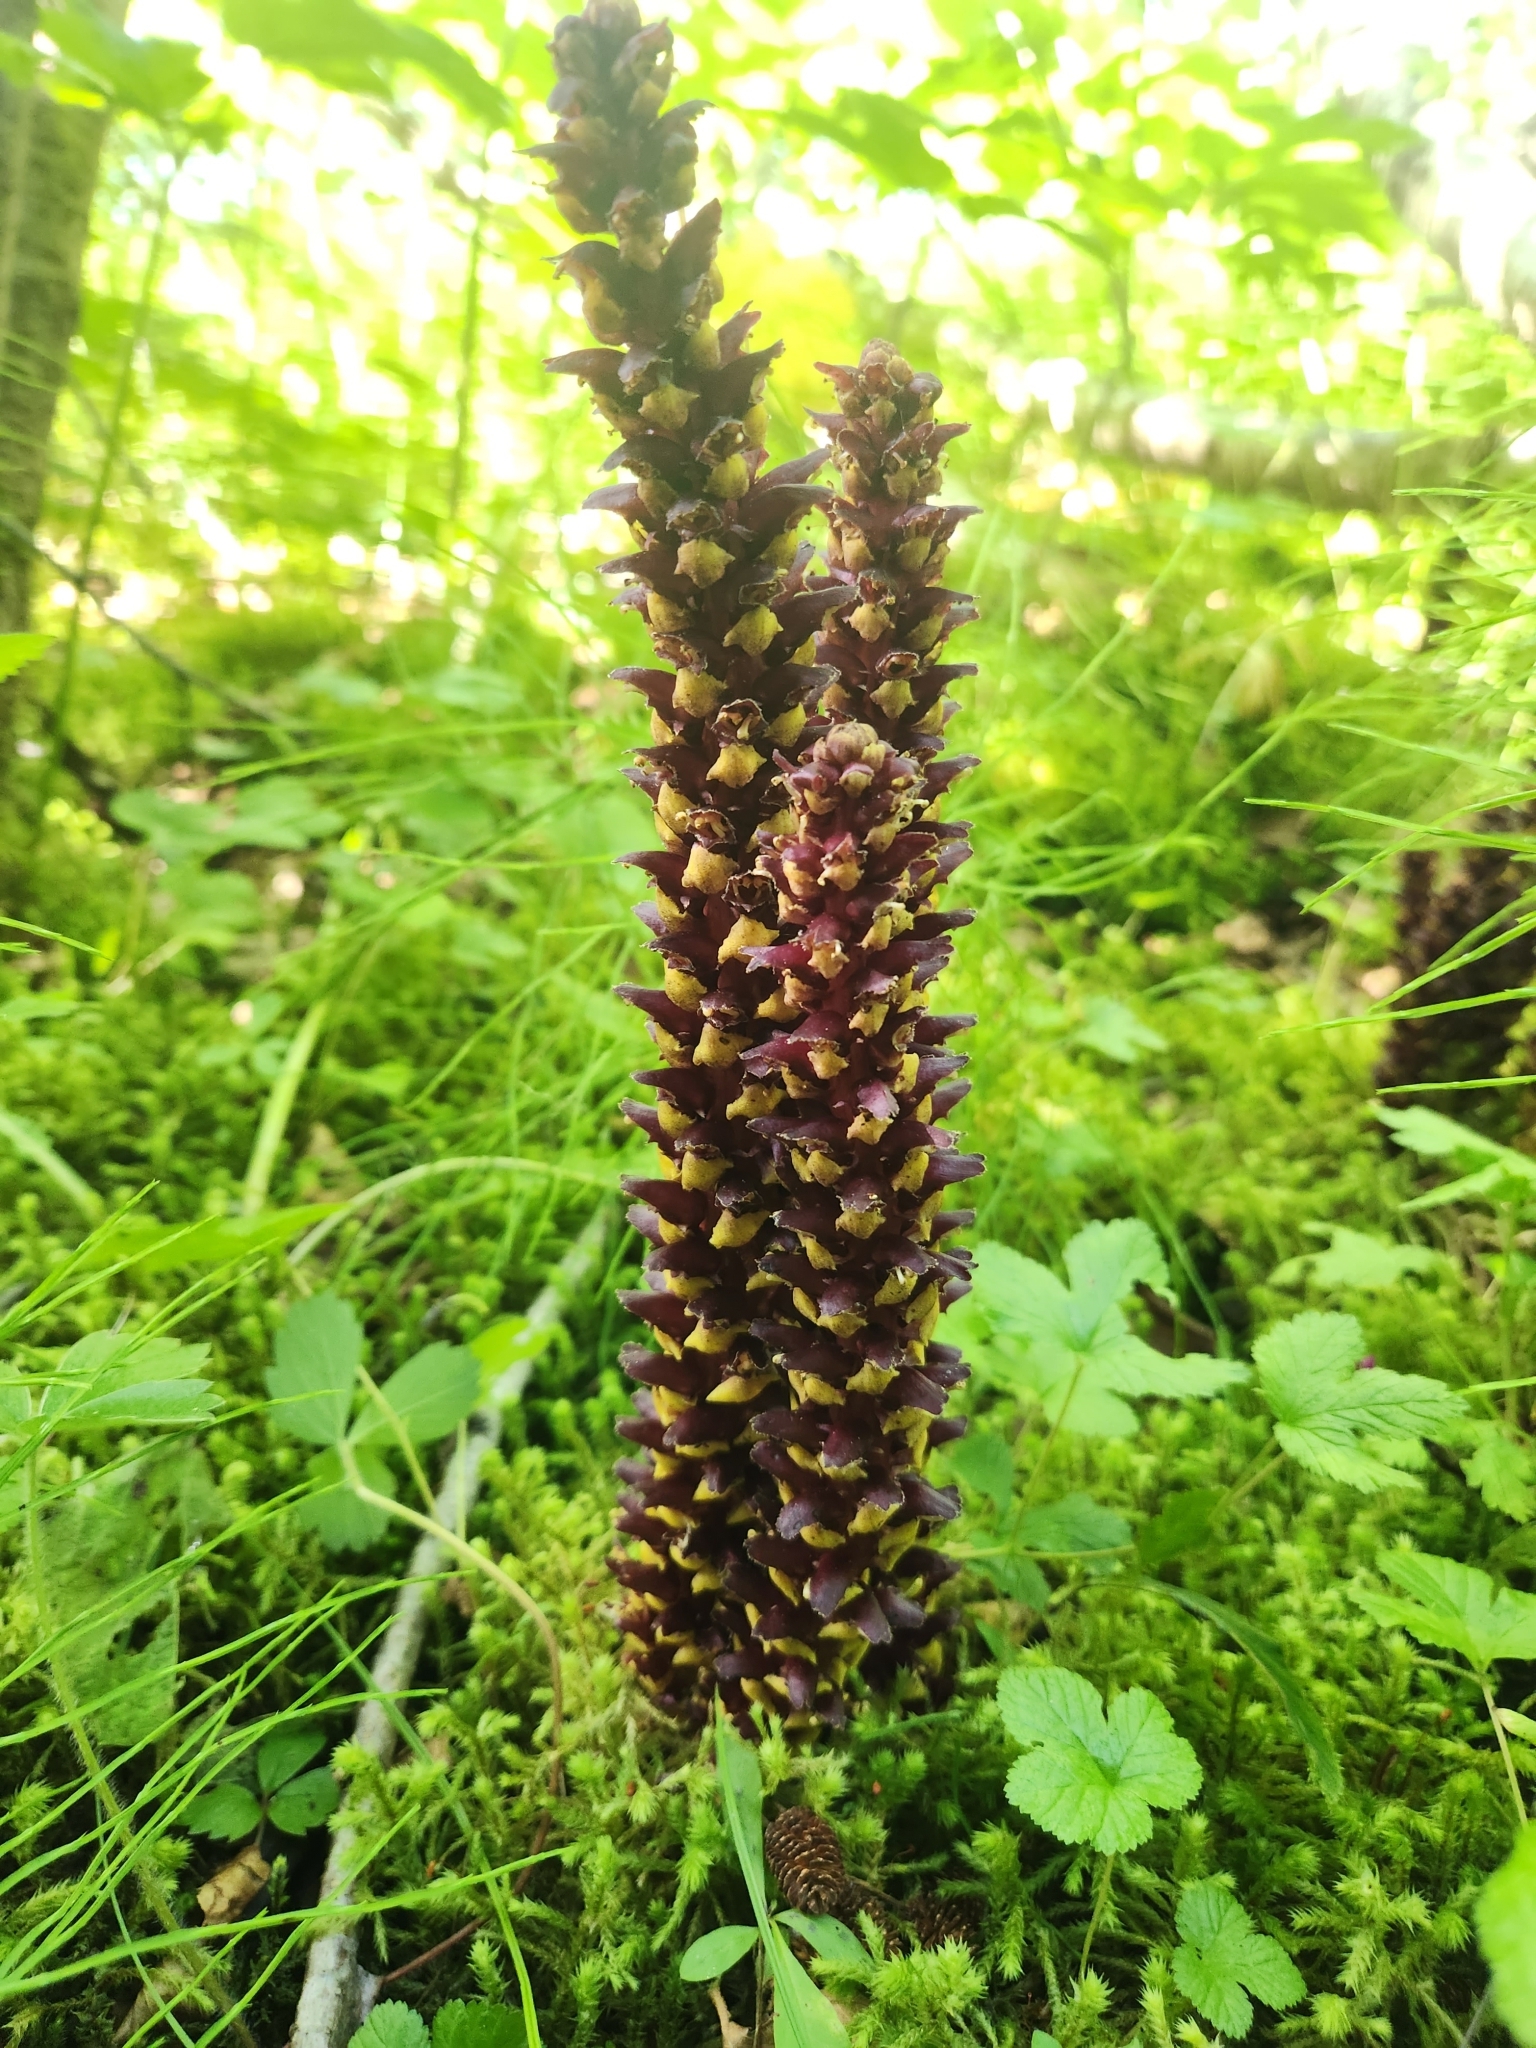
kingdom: Plantae
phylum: Tracheophyta
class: Magnoliopsida
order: Lamiales
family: Orobanchaceae
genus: Boschniakia
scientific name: Boschniakia rossica
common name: Poque
